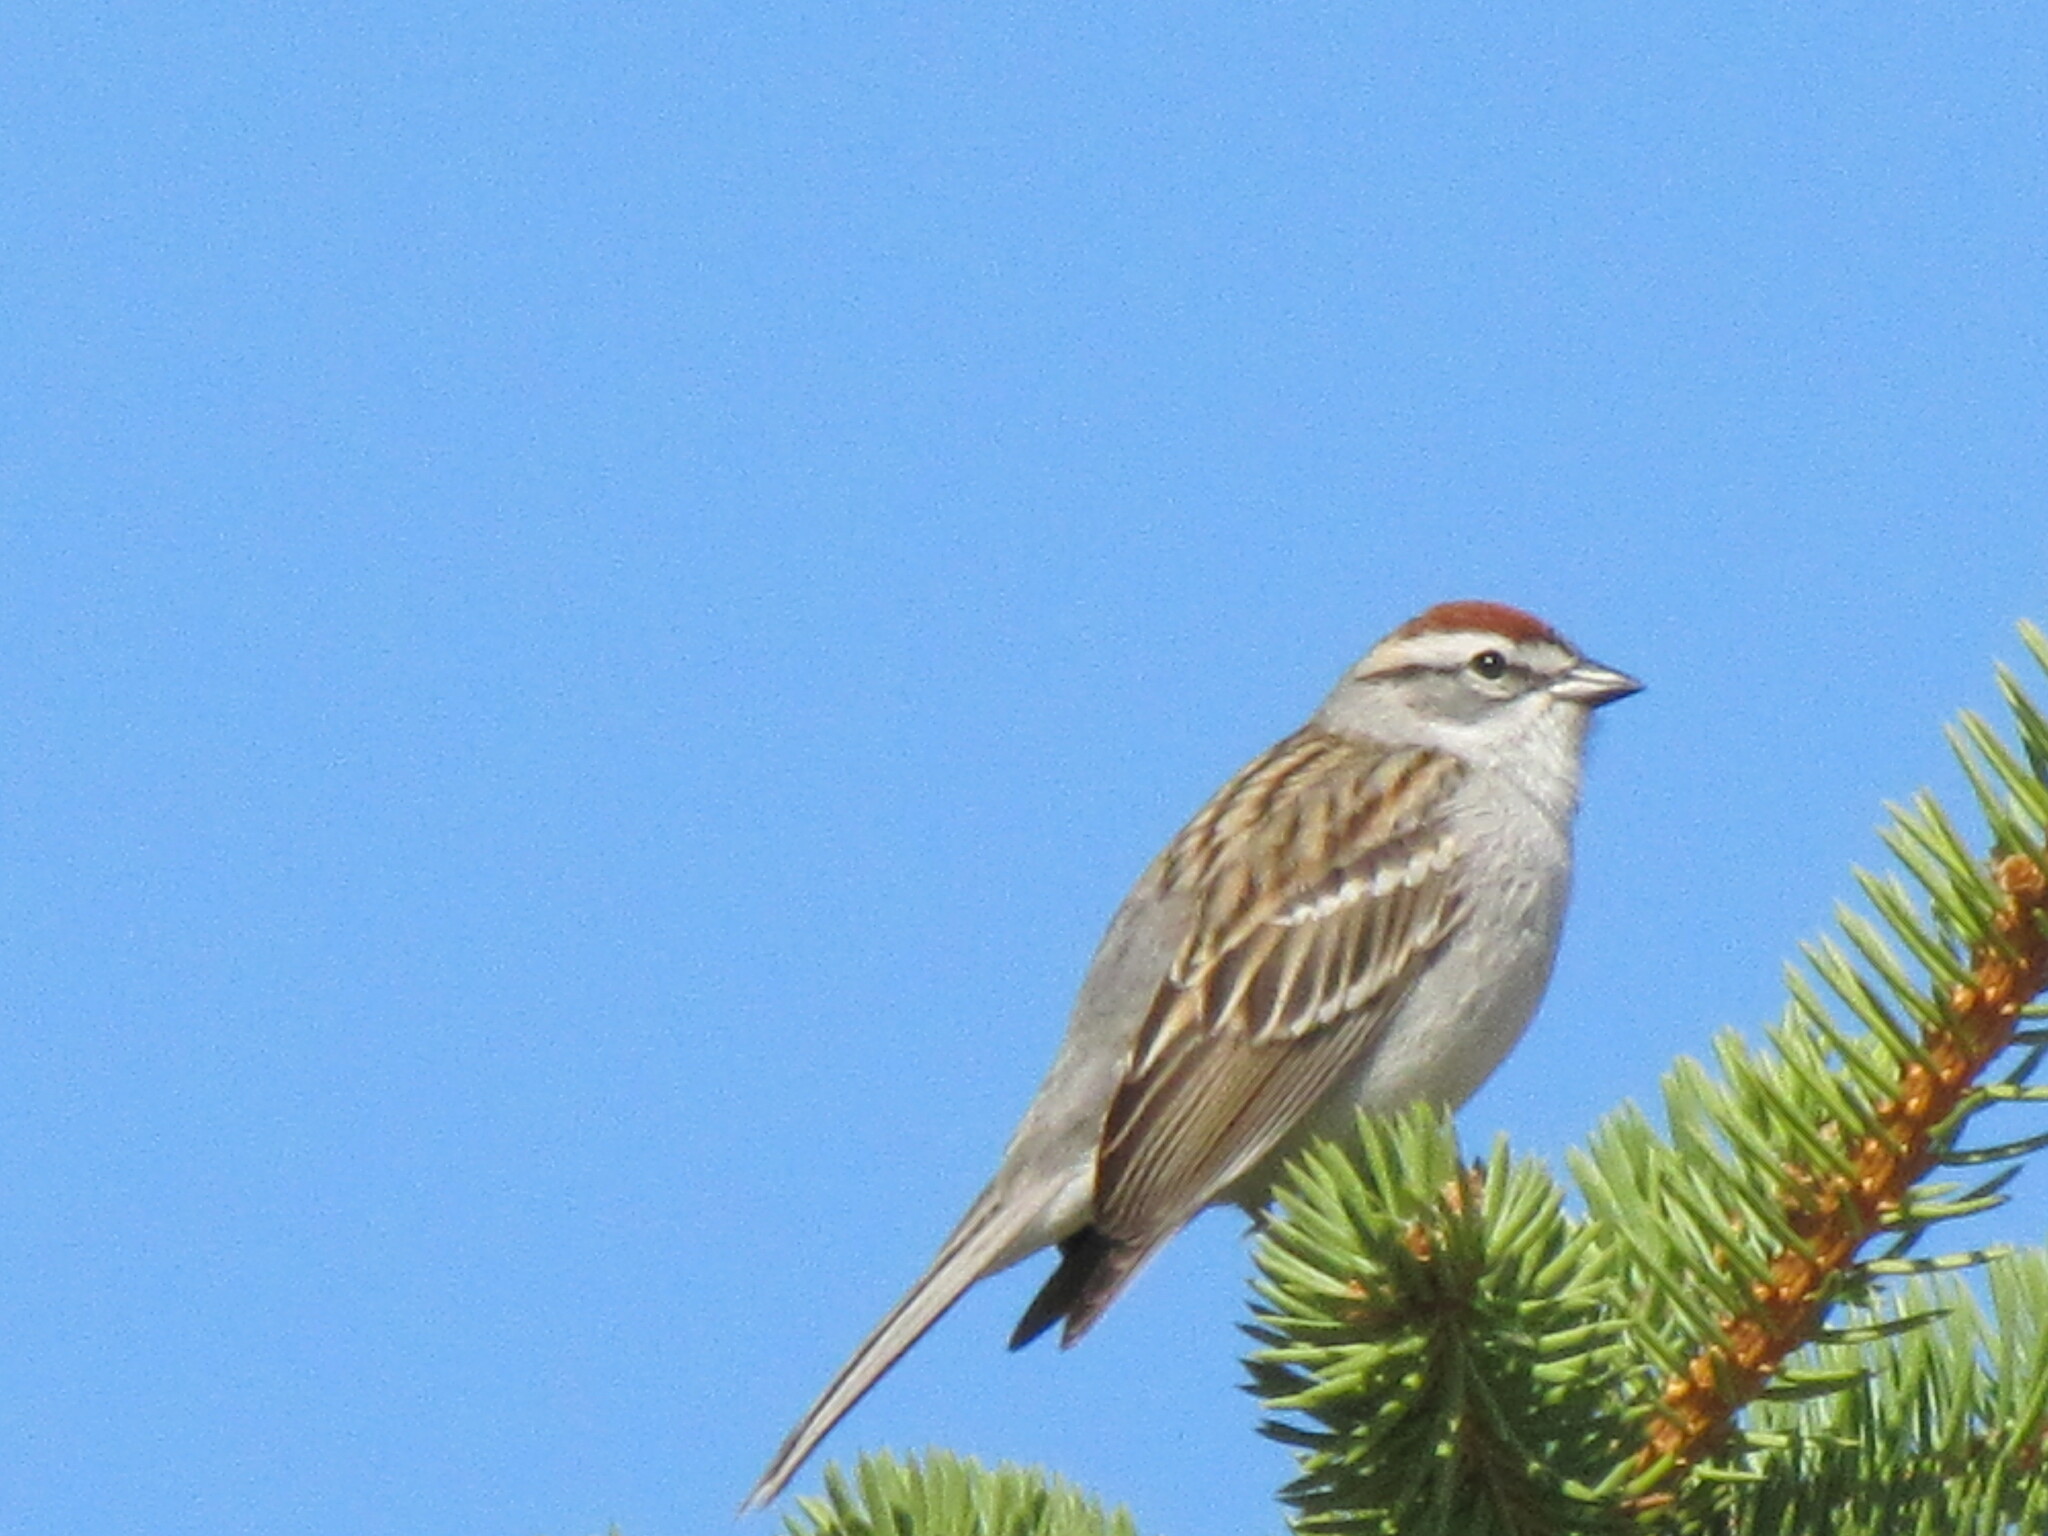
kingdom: Animalia
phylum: Chordata
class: Aves
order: Passeriformes
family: Passerellidae
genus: Spizella
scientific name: Spizella passerina
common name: Chipping sparrow
